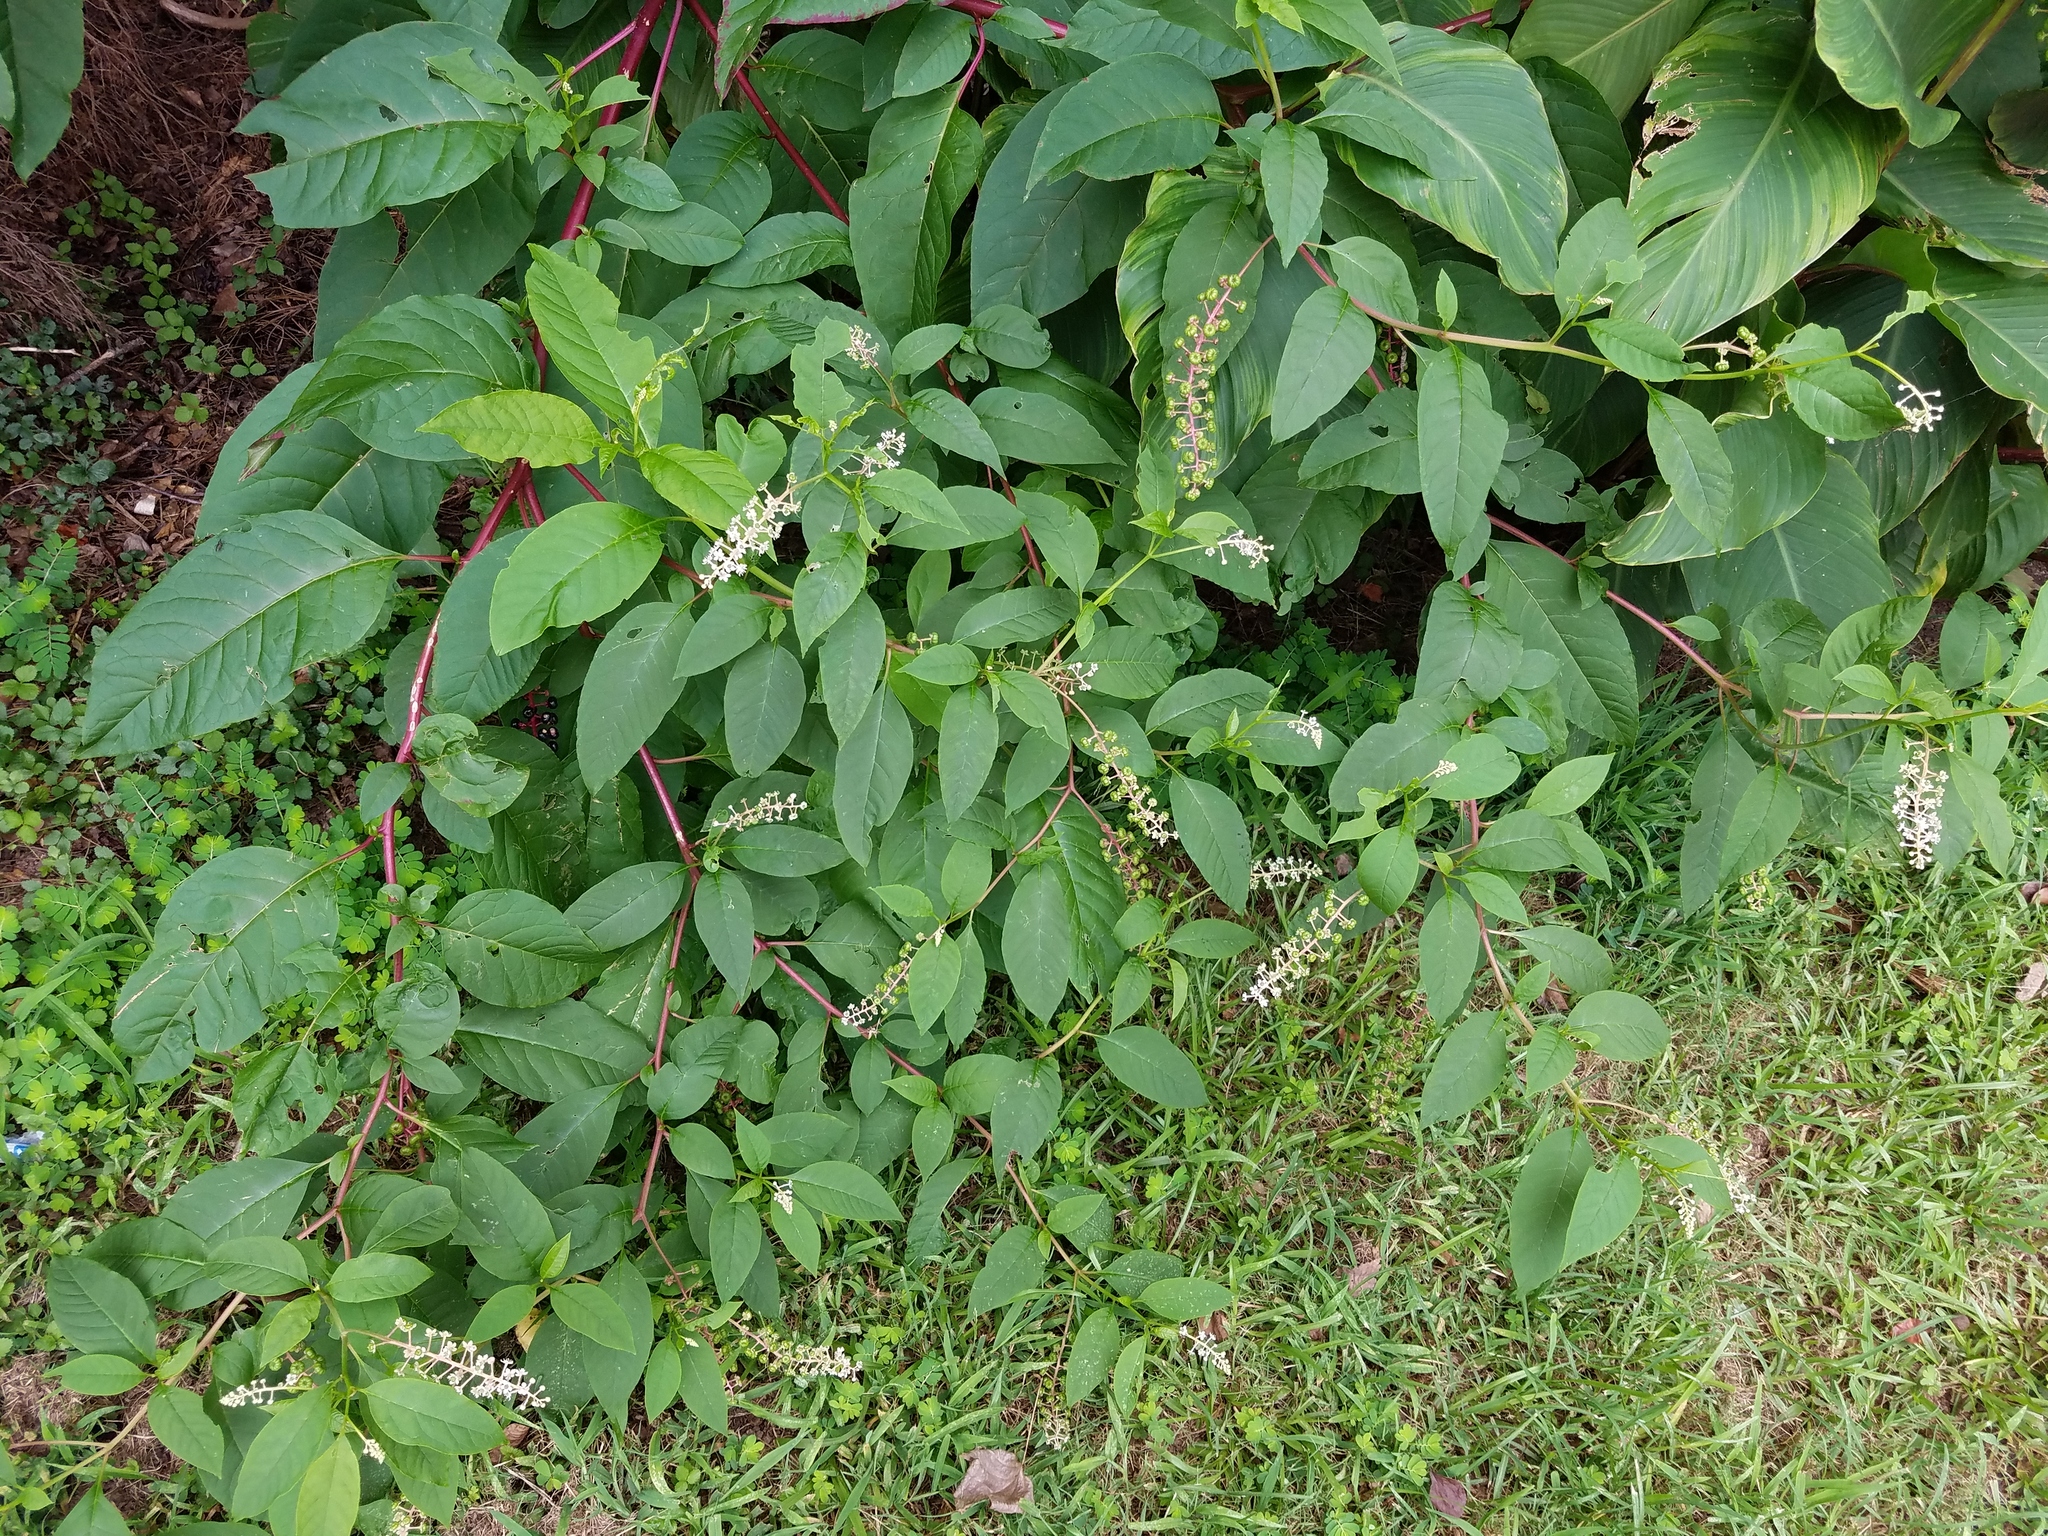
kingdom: Plantae
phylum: Tracheophyta
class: Magnoliopsida
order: Caryophyllales
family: Phytolaccaceae
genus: Phytolacca
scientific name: Phytolacca americana
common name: American pokeweed
